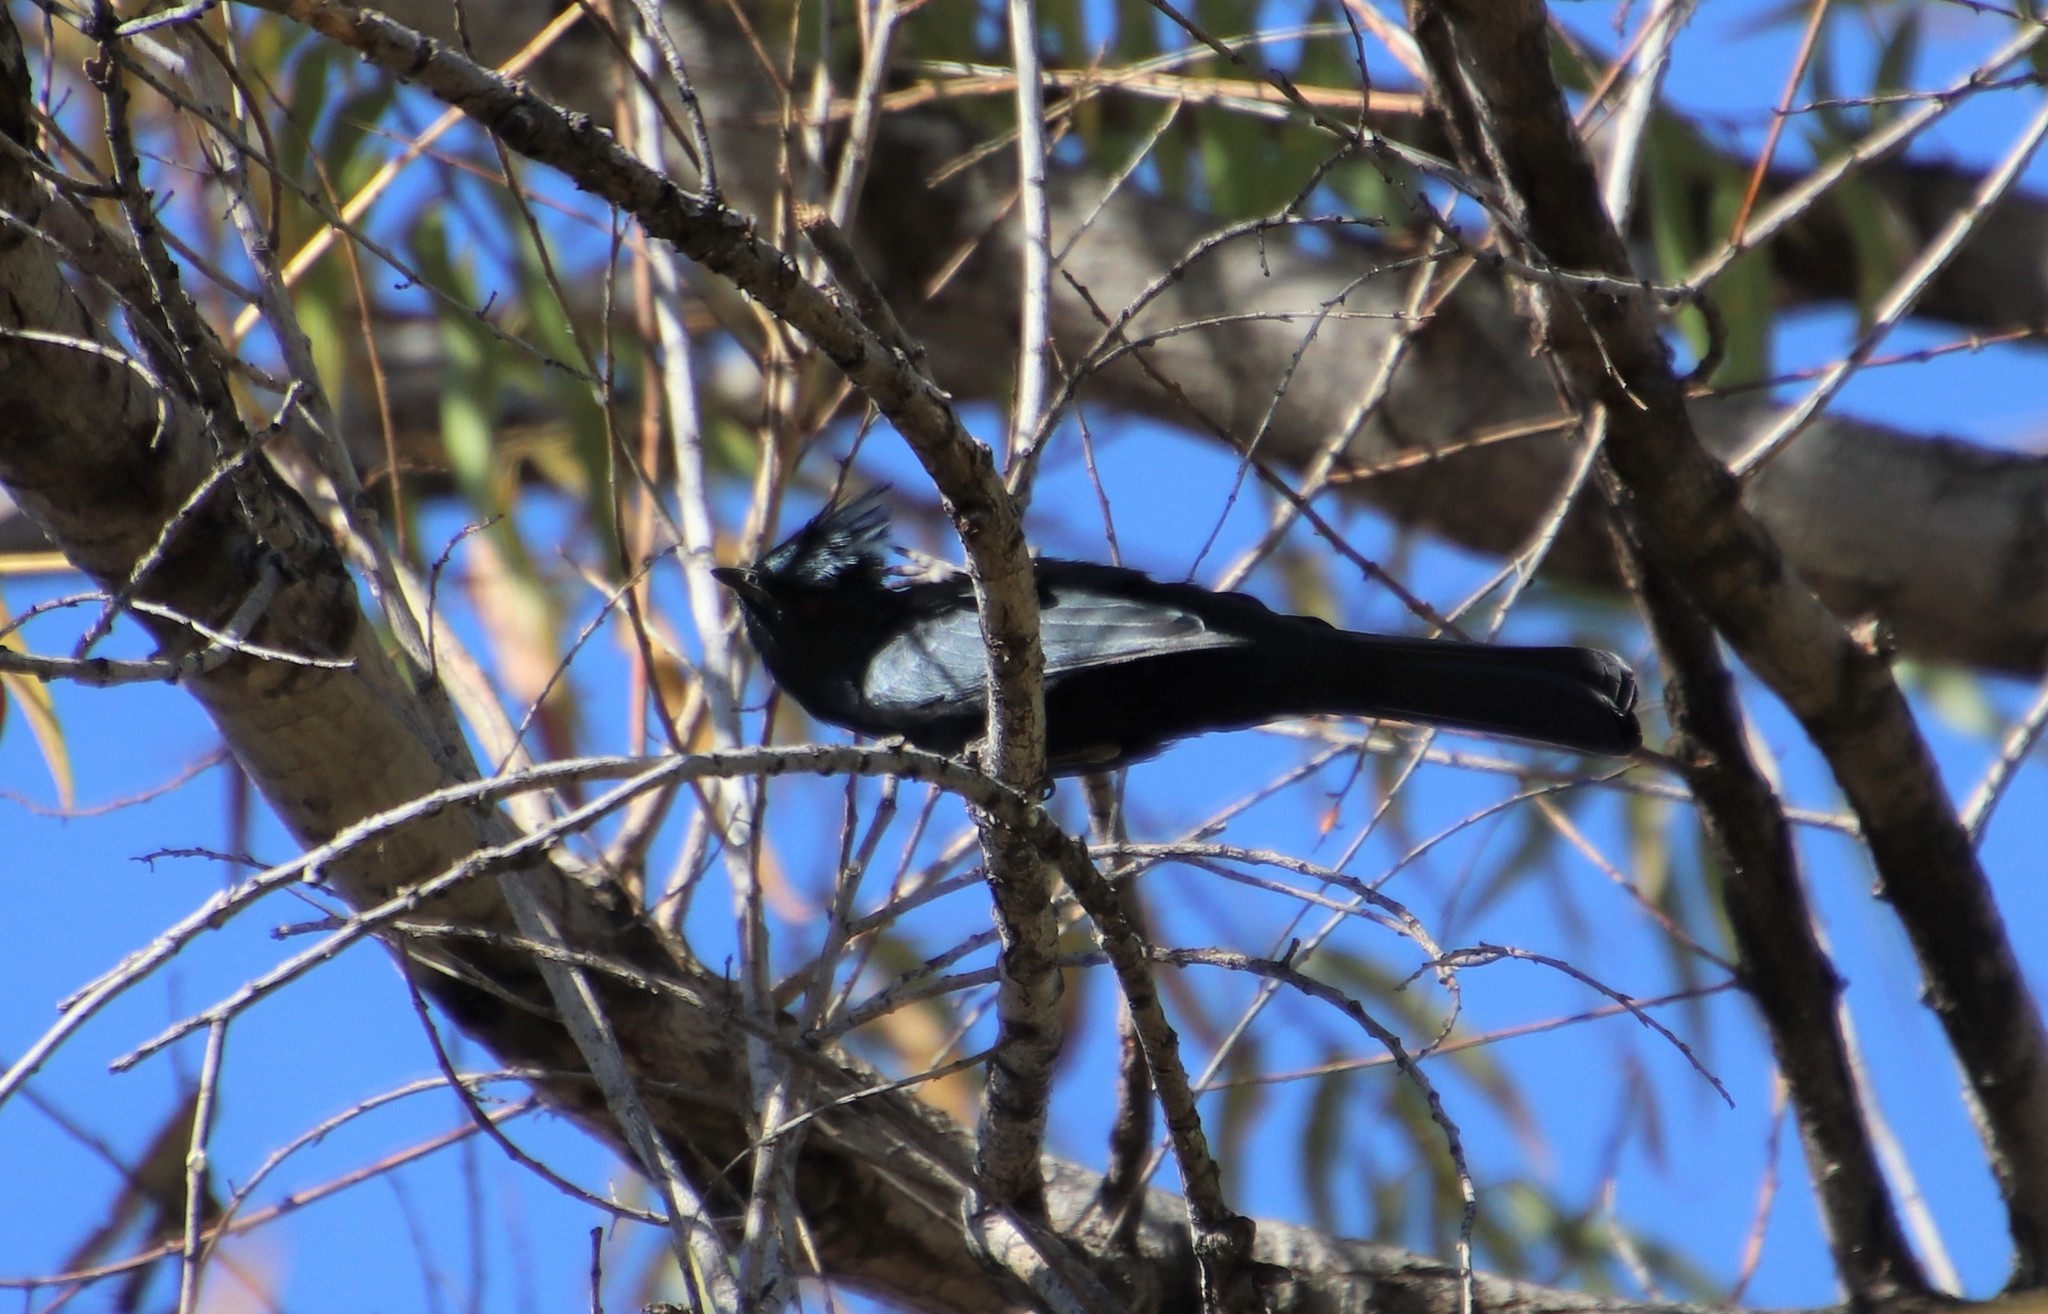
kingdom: Animalia
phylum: Chordata
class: Aves
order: Passeriformes
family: Ptilogonatidae
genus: Phainopepla
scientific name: Phainopepla nitens
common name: Phainopepla
